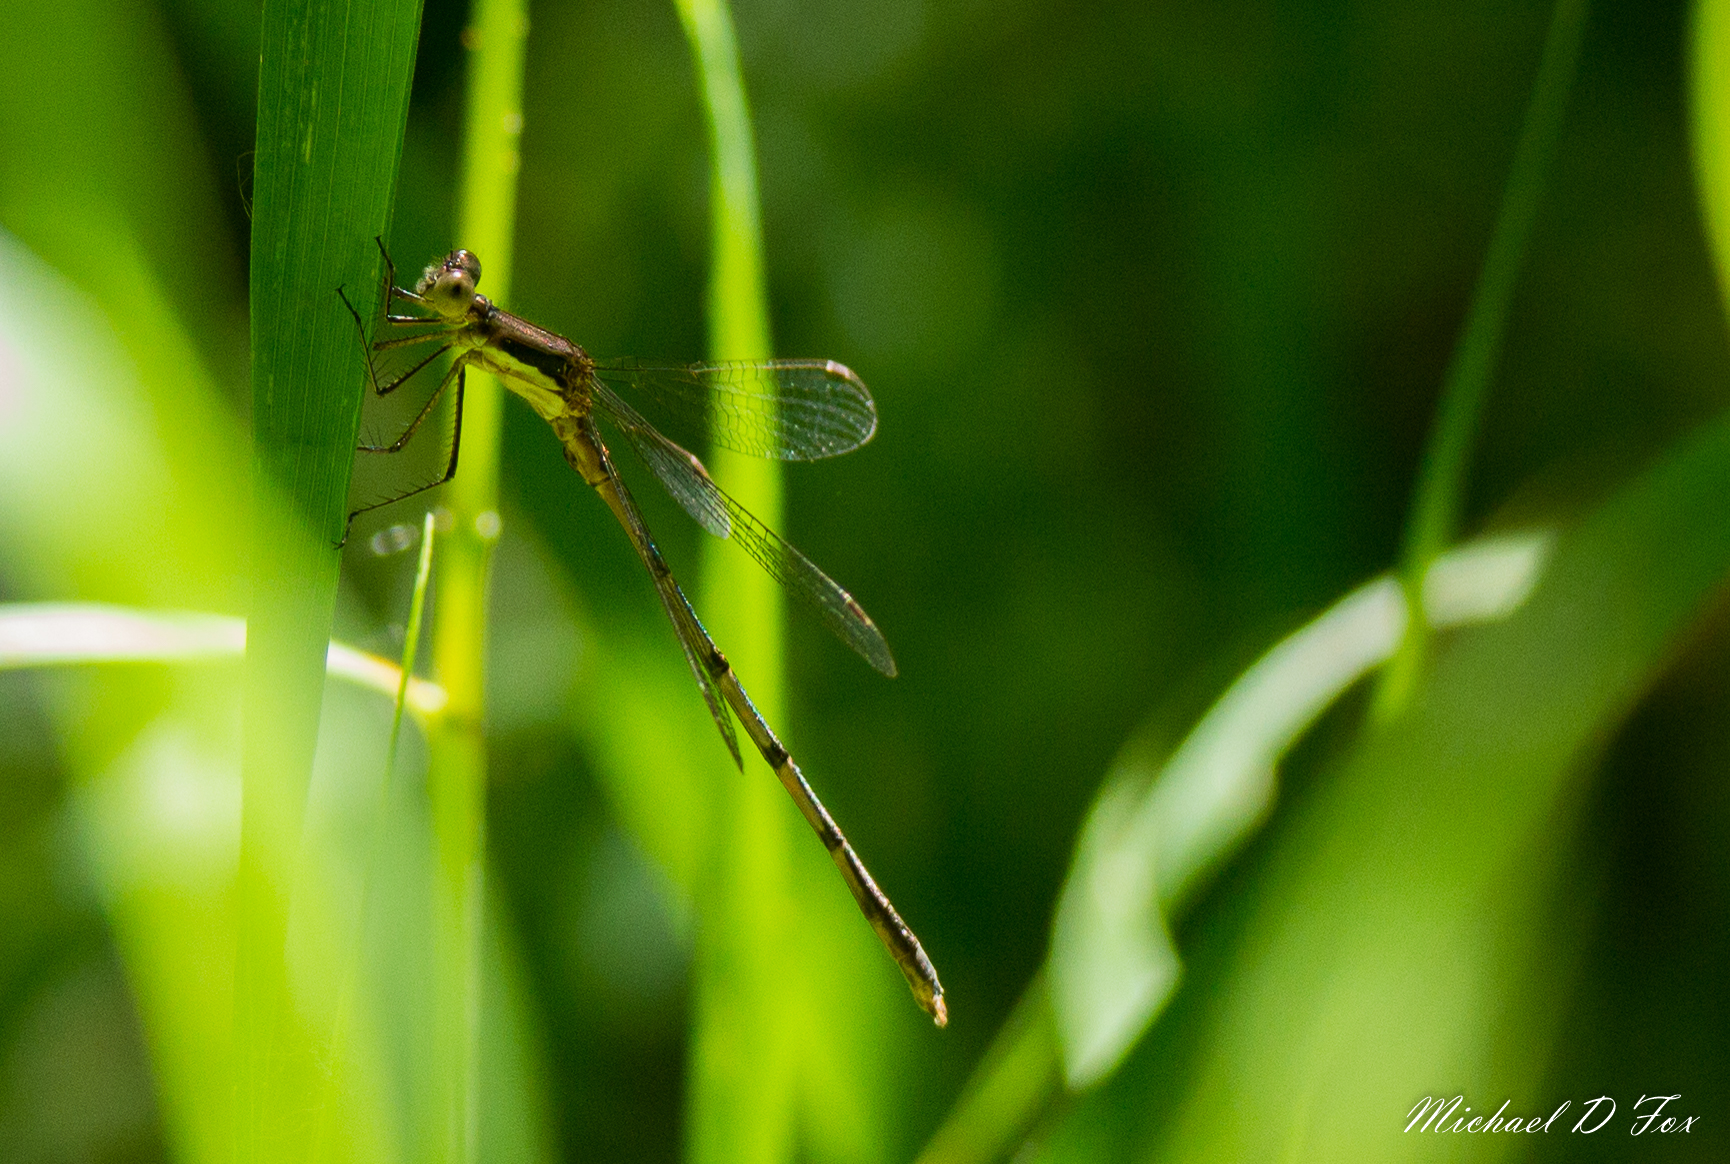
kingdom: Animalia
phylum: Arthropoda
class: Insecta
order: Odonata
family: Lestidae
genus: Lestes
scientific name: Lestes australis
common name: Southern spreadwing
